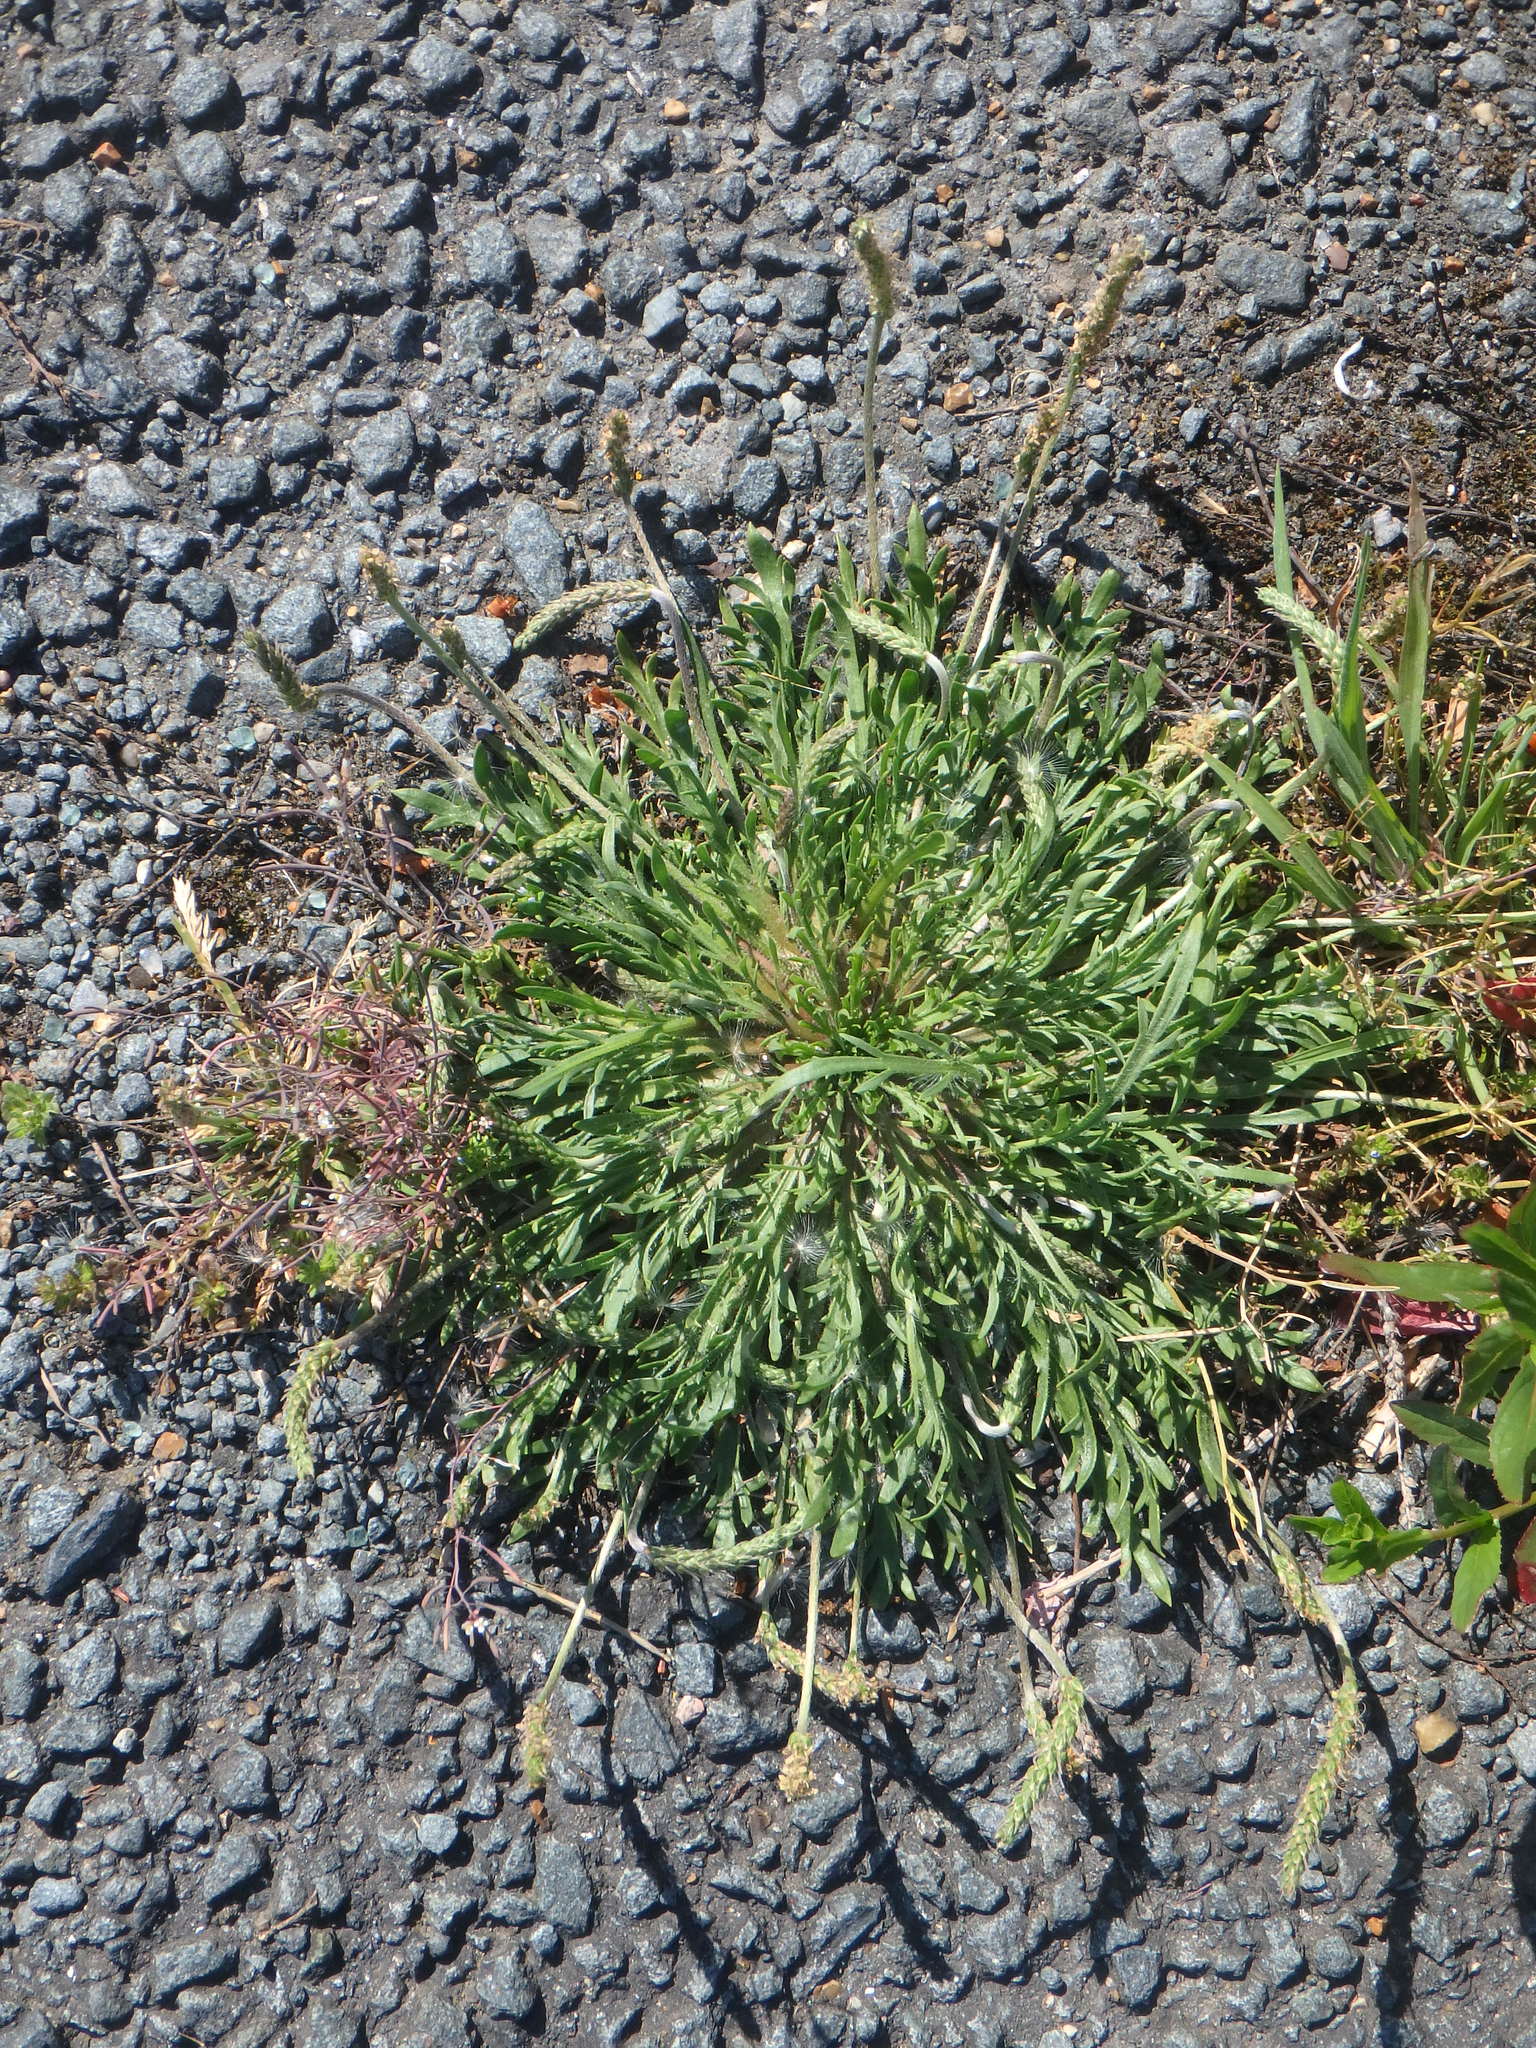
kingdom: Plantae
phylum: Tracheophyta
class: Magnoliopsida
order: Lamiales
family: Plantaginaceae
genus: Plantago
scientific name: Plantago coronopus
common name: Buck's-horn plantain
